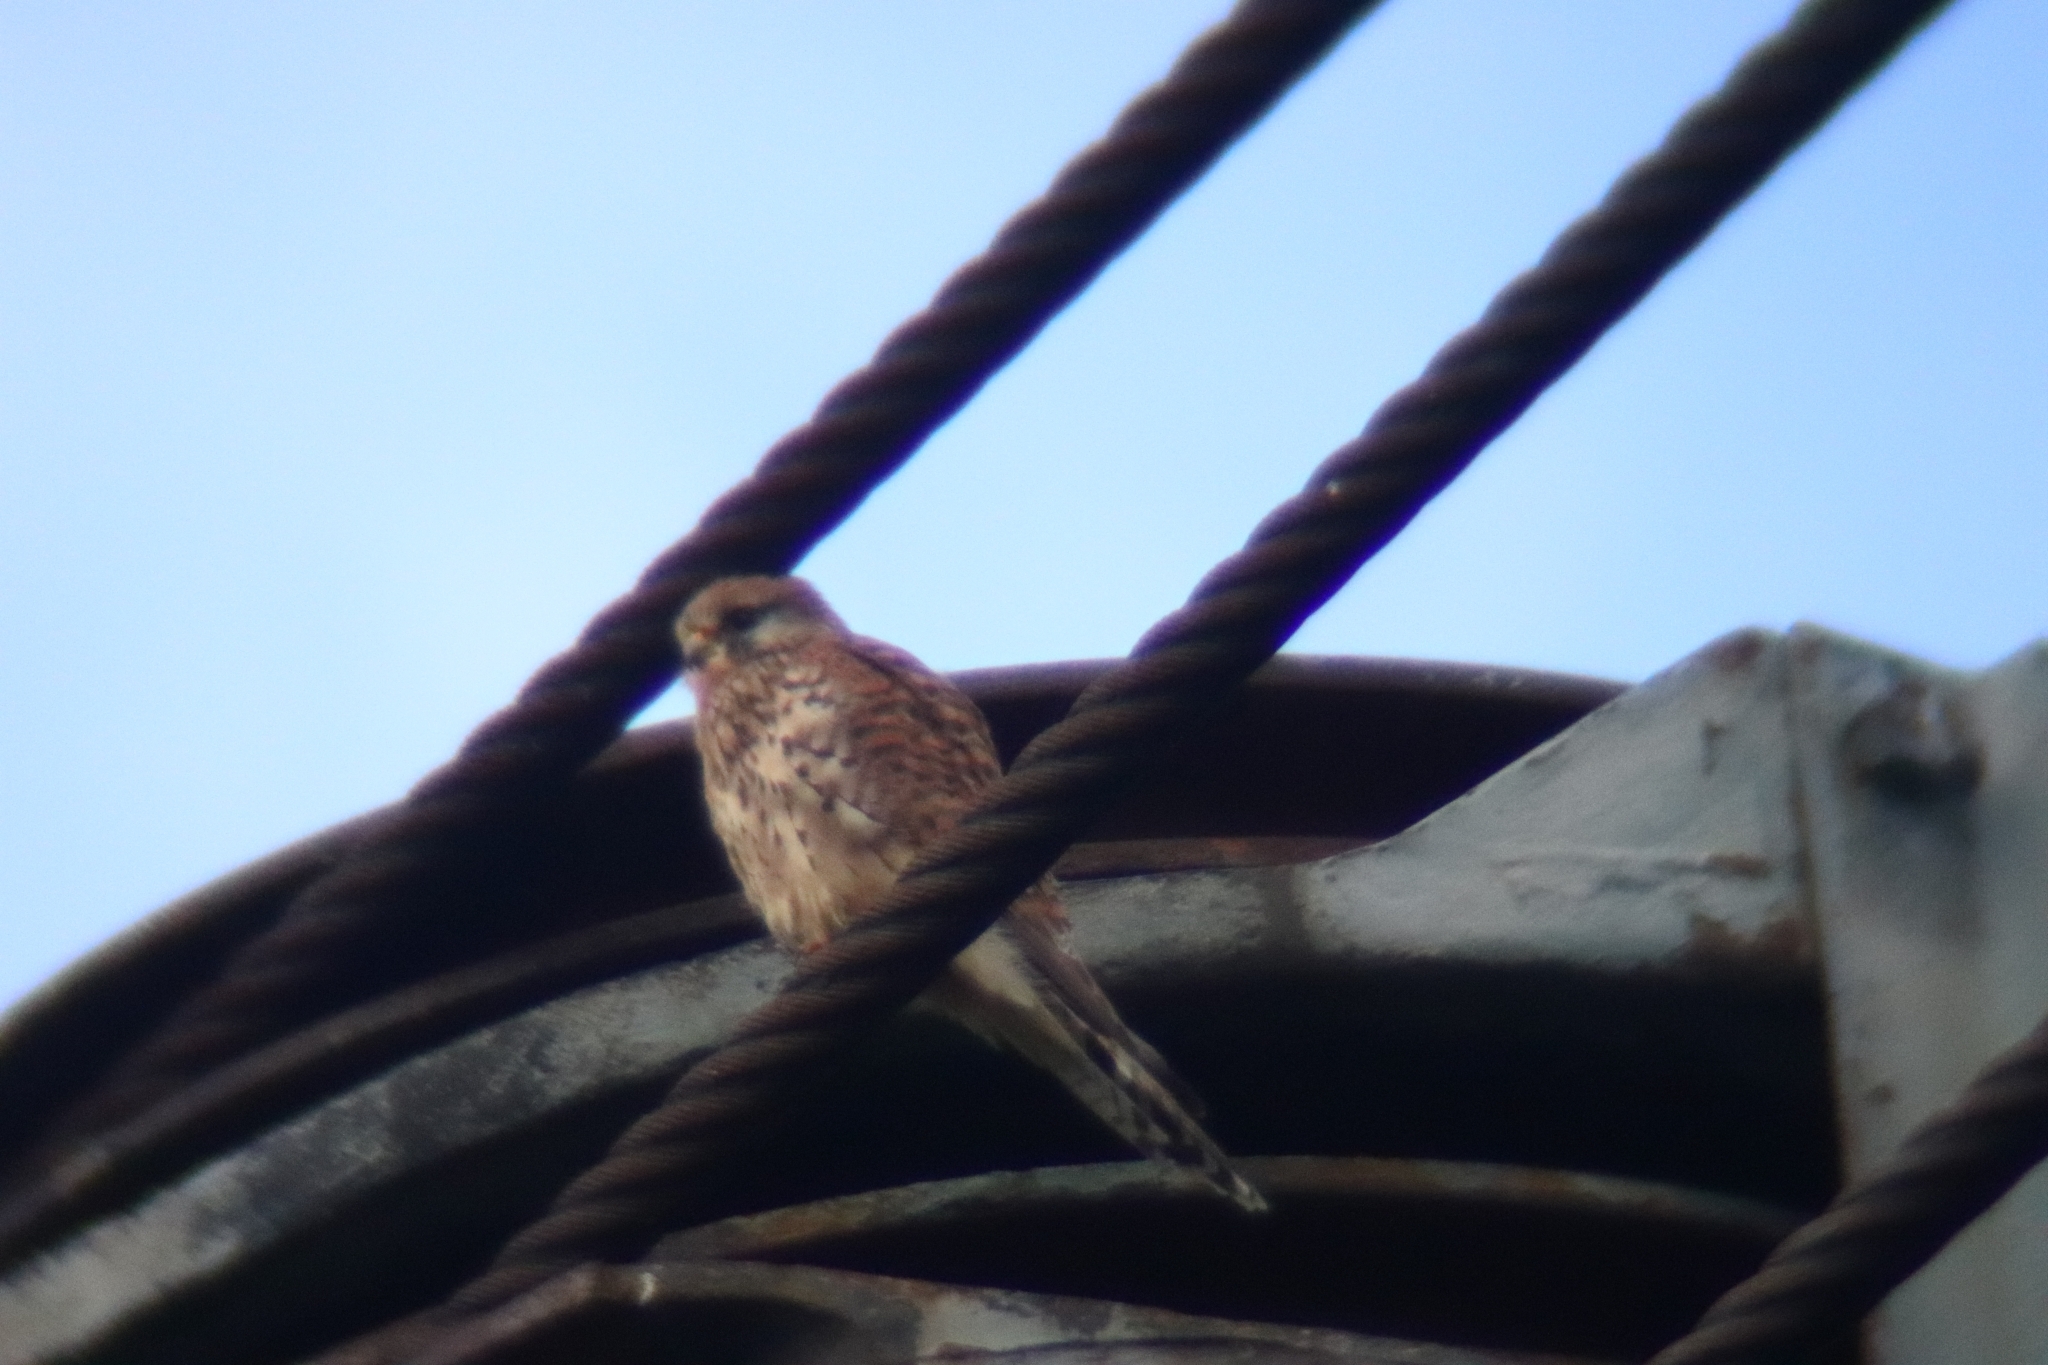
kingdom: Animalia
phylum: Chordata
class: Aves
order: Falconiformes
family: Falconidae
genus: Falco
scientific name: Falco tinnunculus
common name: Common kestrel
